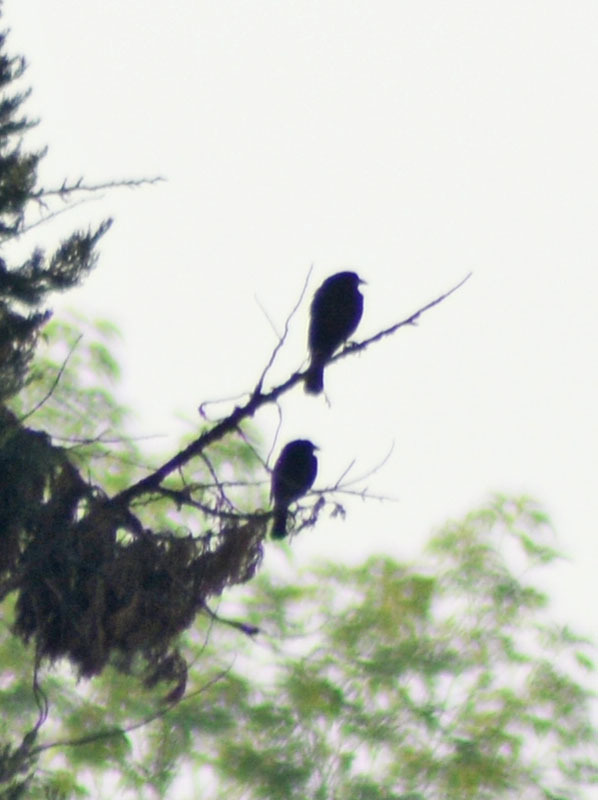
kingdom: Animalia
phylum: Chordata
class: Aves
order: Passeriformes
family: Icteridae
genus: Molothrus
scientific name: Molothrus aeneus
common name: Bronzed cowbird
